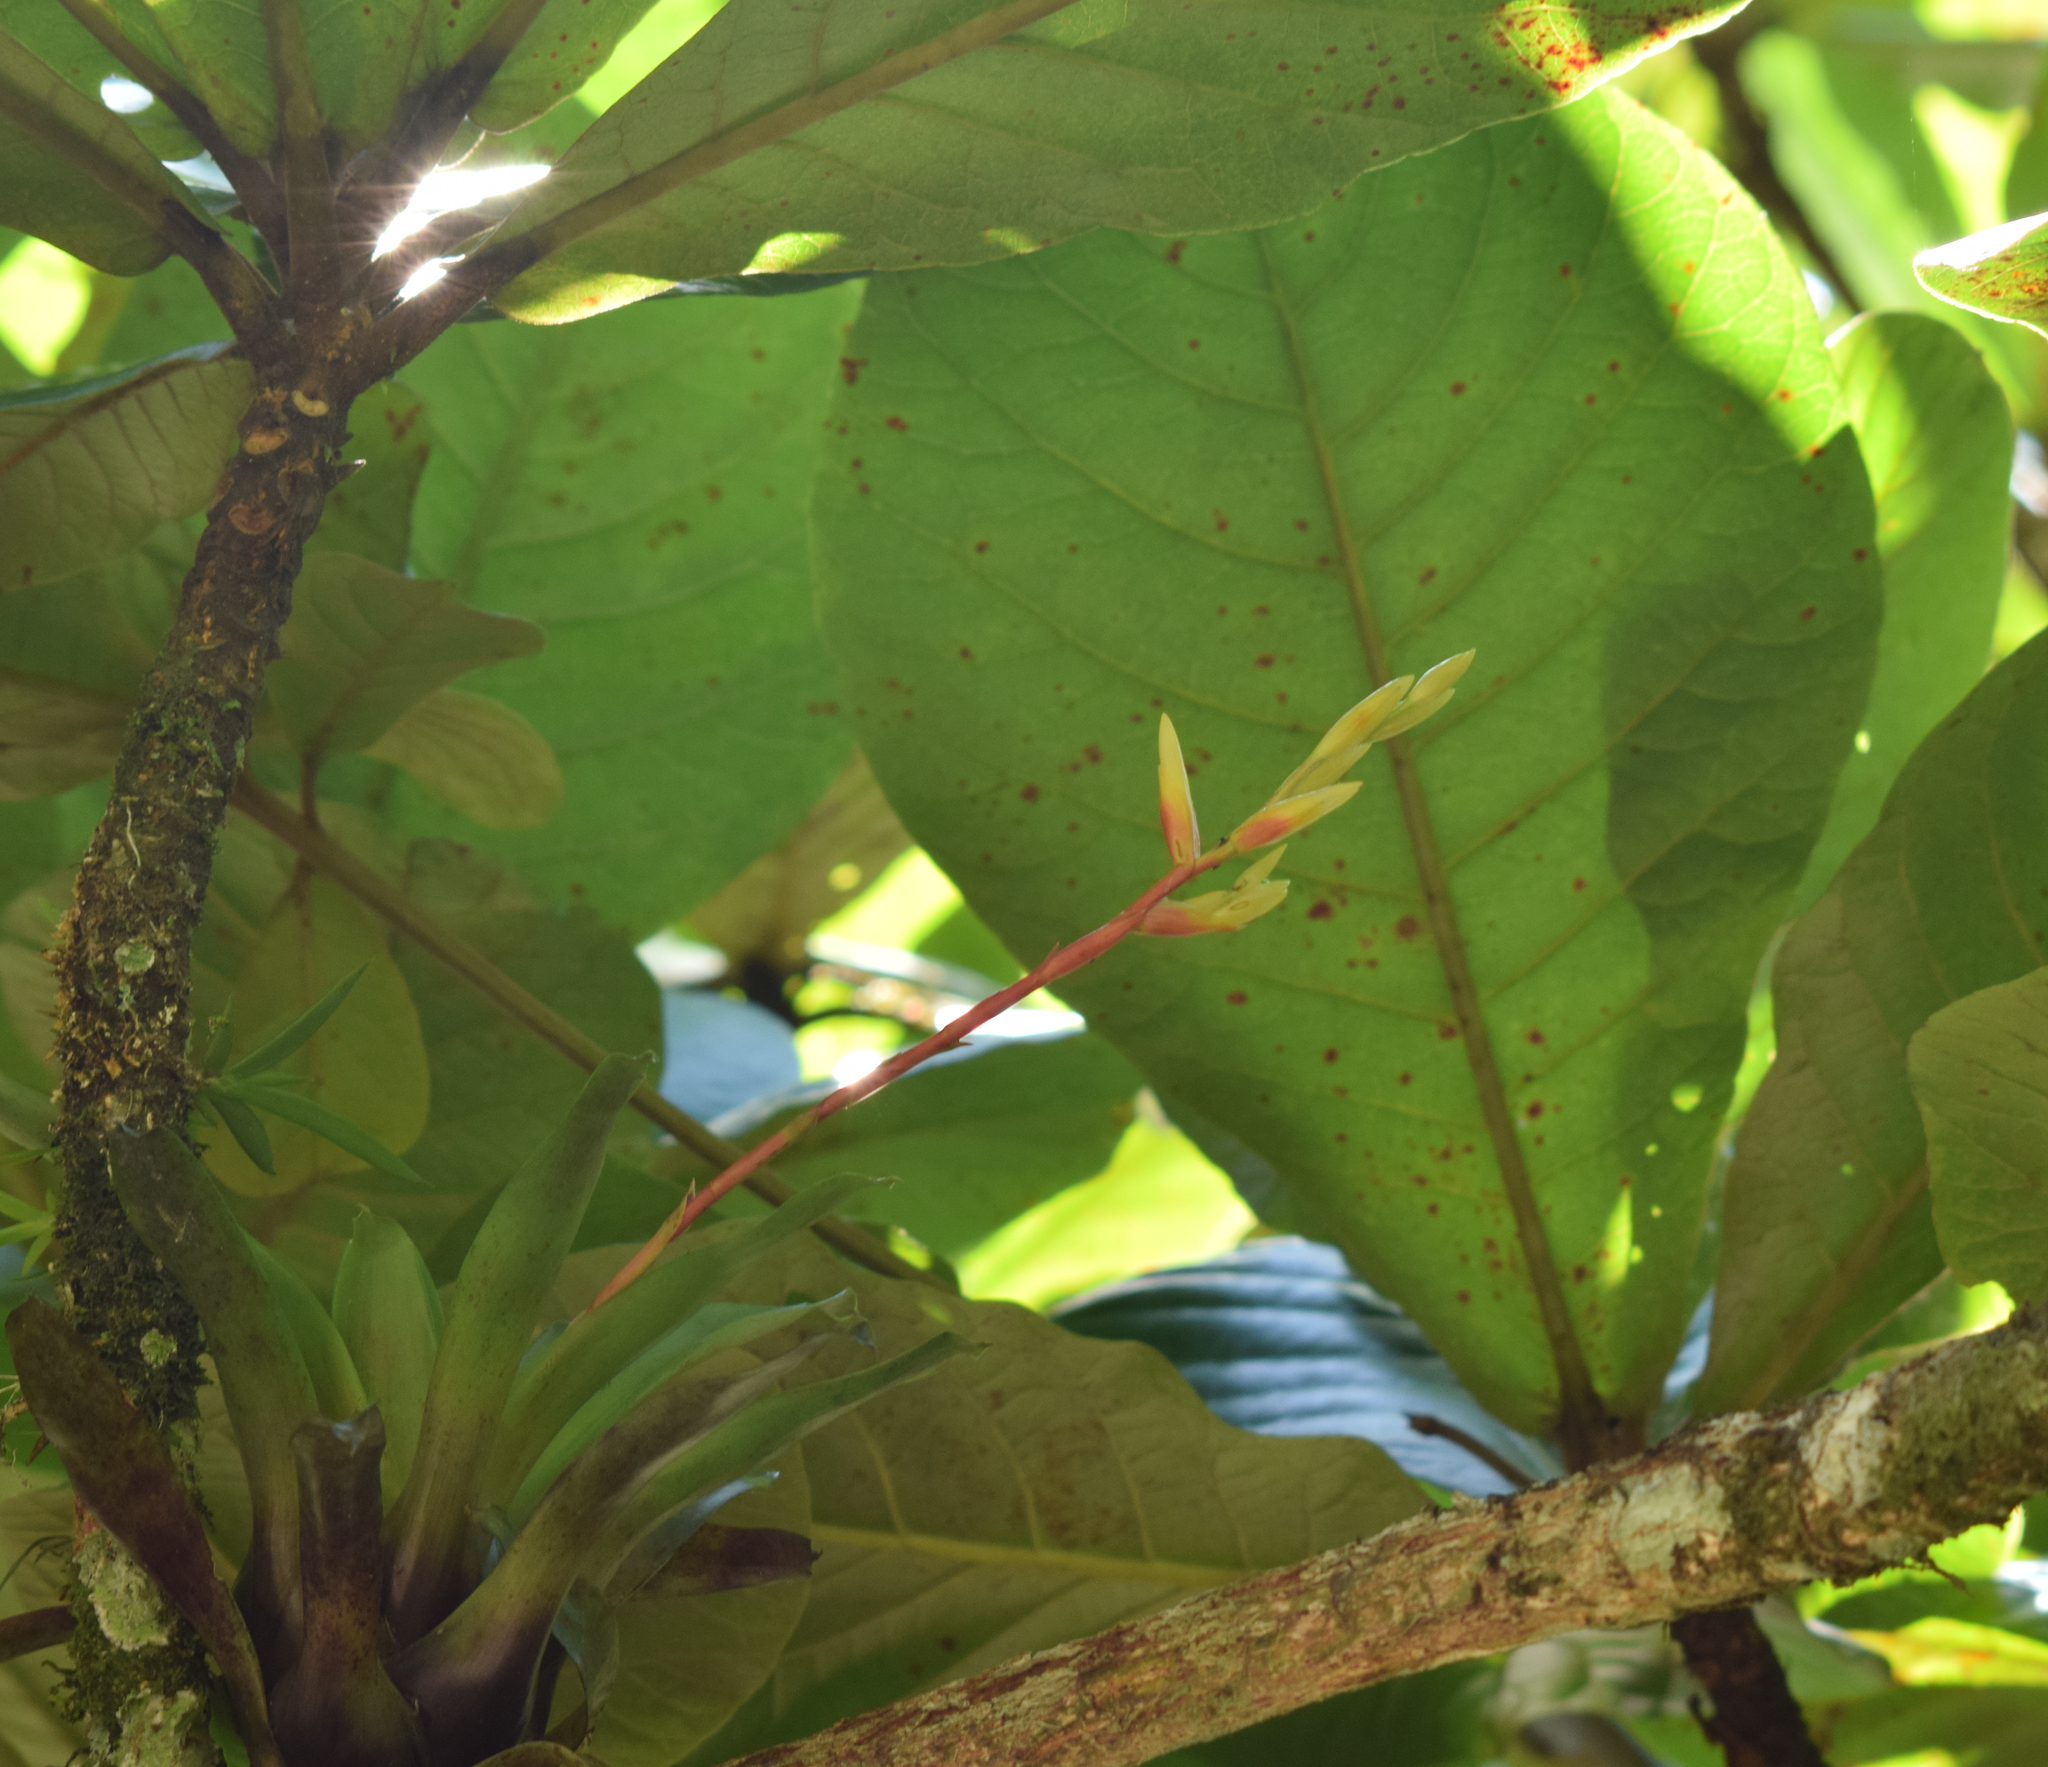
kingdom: Plantae
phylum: Tracheophyta
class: Liliopsida
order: Poales
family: Bromeliaceae
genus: Vriesea
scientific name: Vriesea rodigasiana
